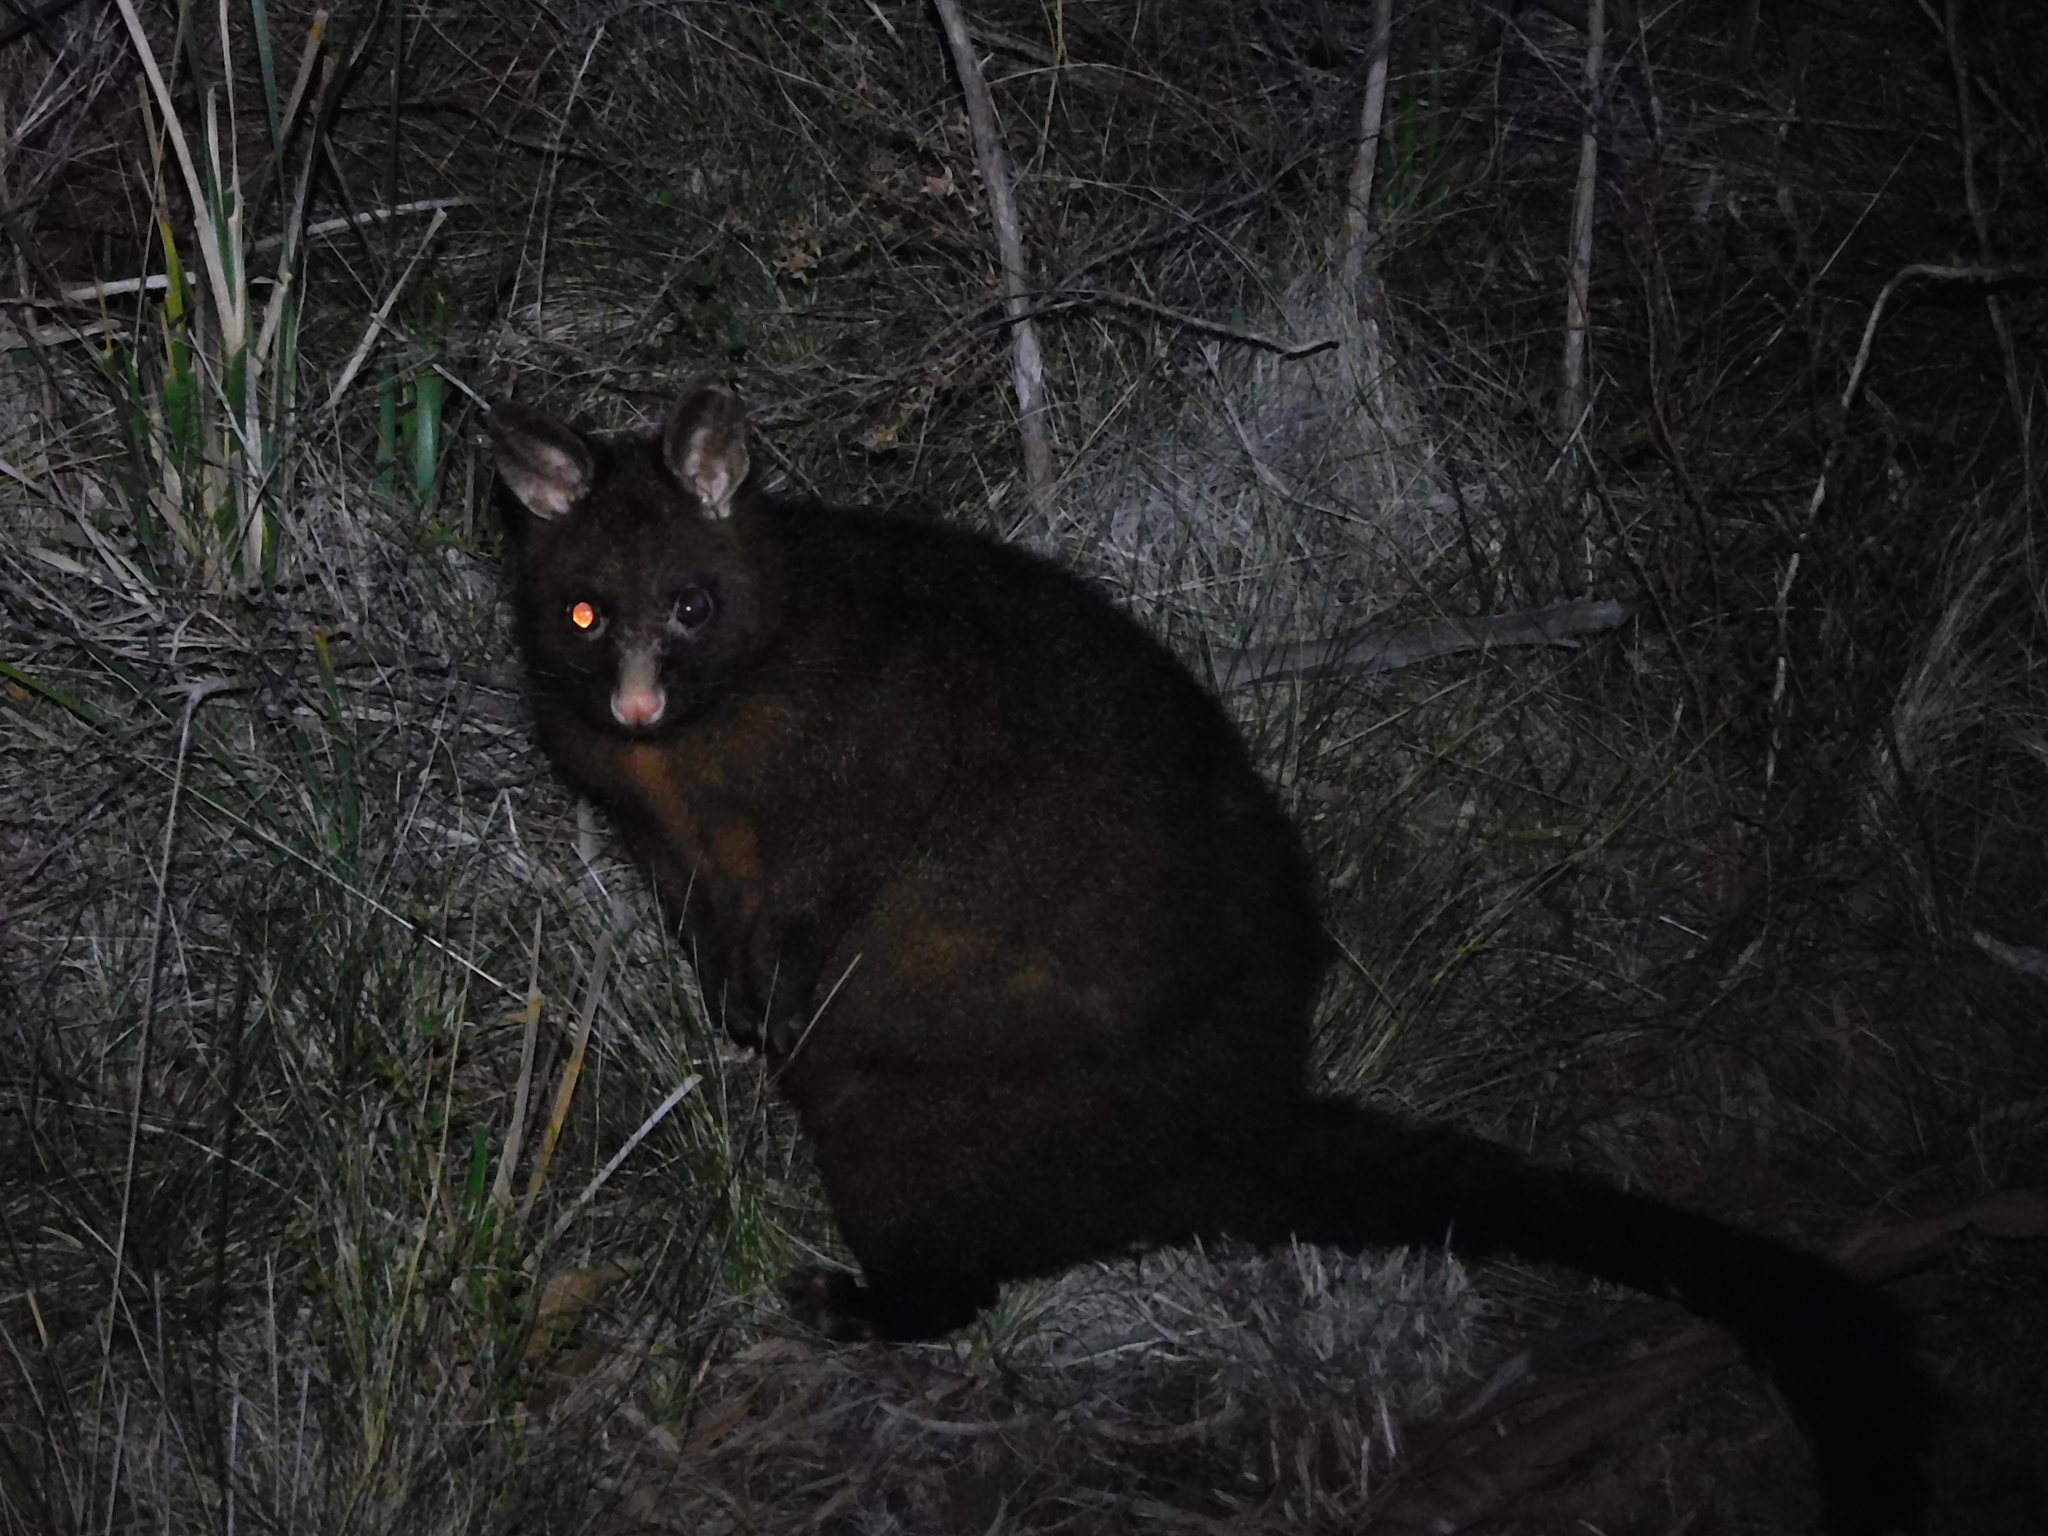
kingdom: Animalia
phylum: Chordata
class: Mammalia
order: Diprotodontia
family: Phalangeridae
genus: Trichosurus
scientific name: Trichosurus vulpecula
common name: Common brushtail
